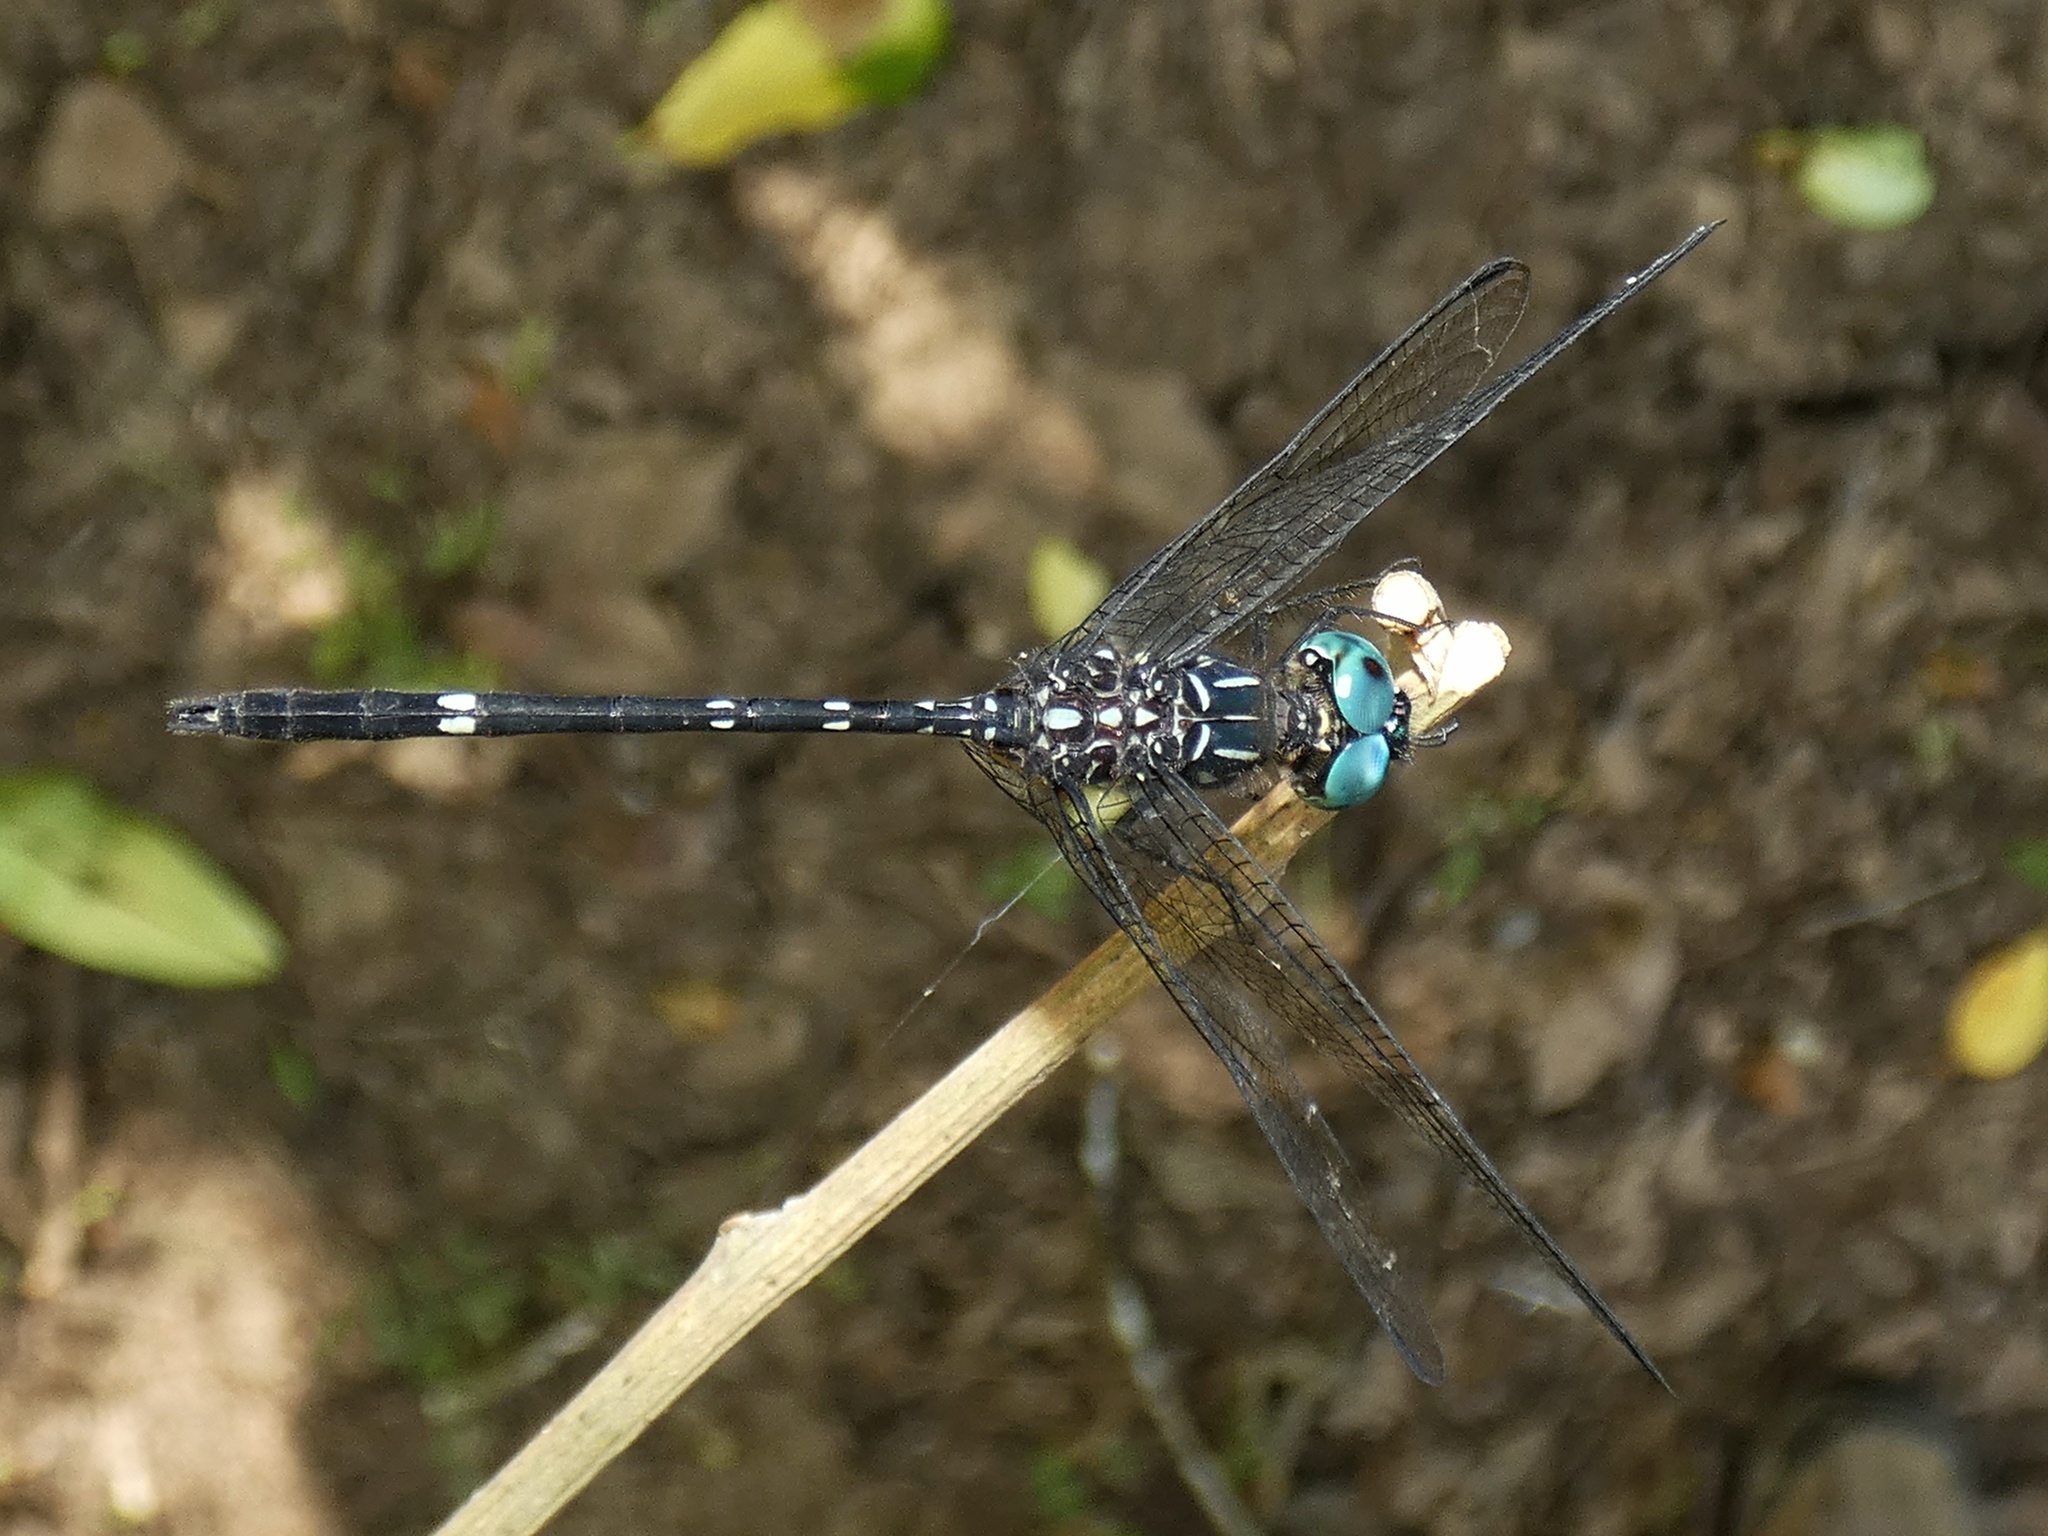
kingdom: Animalia
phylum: Arthropoda
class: Insecta
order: Odonata
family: Libellulidae
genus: Dythemis
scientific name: Dythemis nigra
